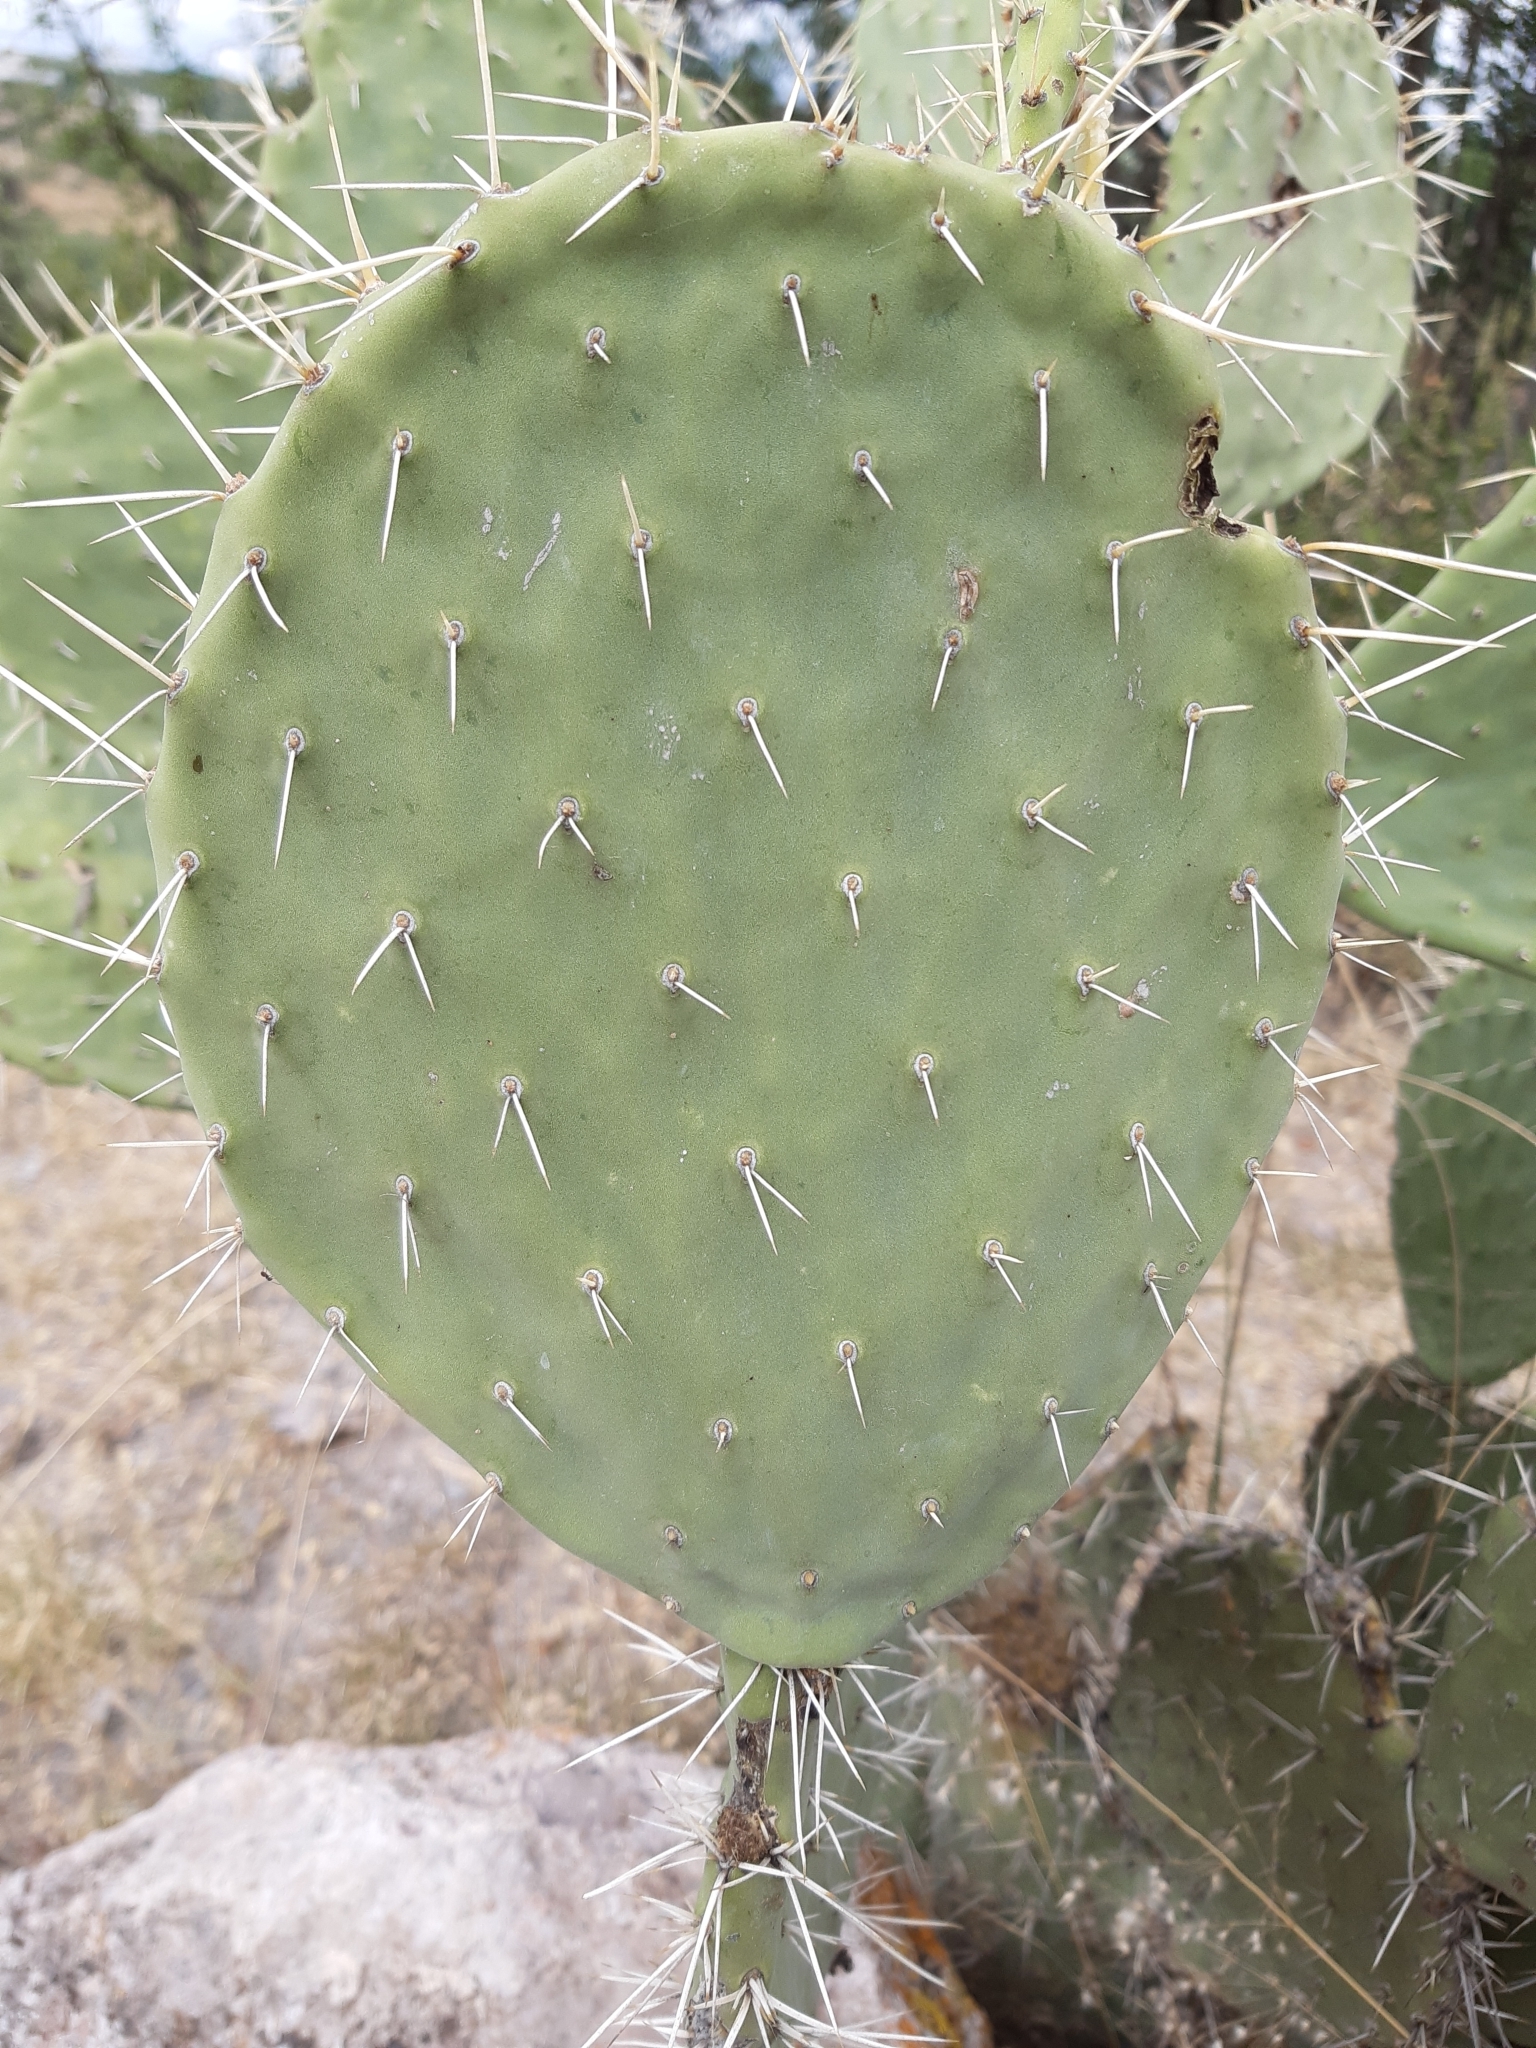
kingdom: Plantae
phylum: Tracheophyta
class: Magnoliopsida
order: Caryophyllales
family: Cactaceae
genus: Opuntia
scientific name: Opuntia lasiacantha
